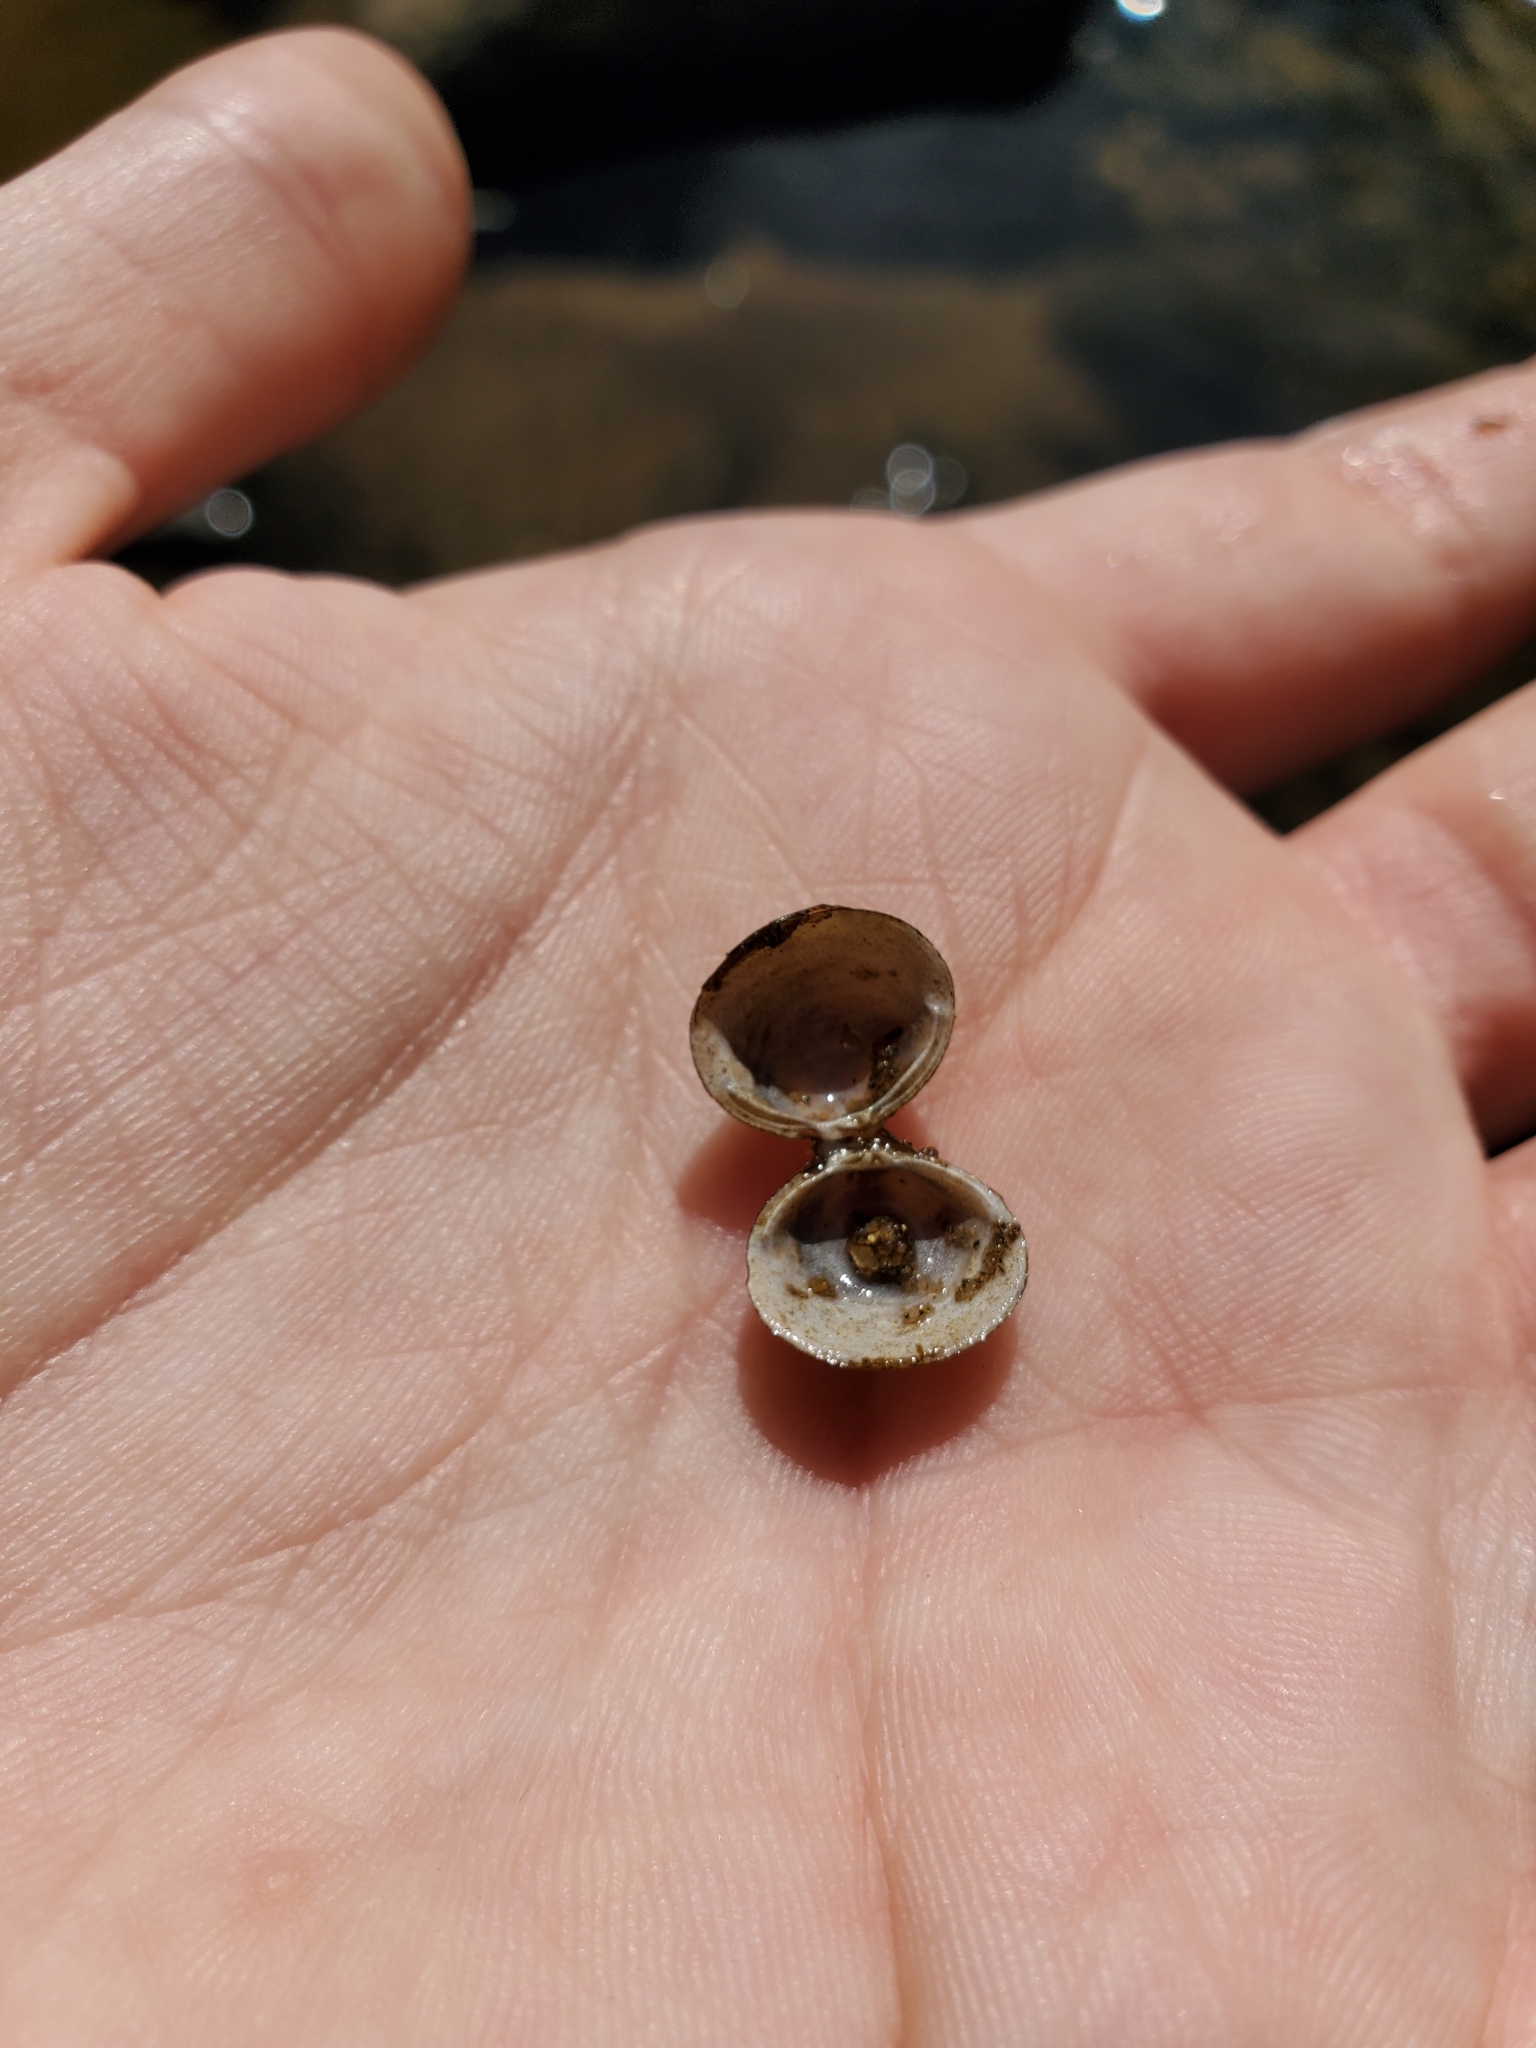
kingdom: Animalia
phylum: Mollusca
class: Bivalvia
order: Venerida
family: Cyrenidae
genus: Corbicula
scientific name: Corbicula fluminea
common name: Asian clam
